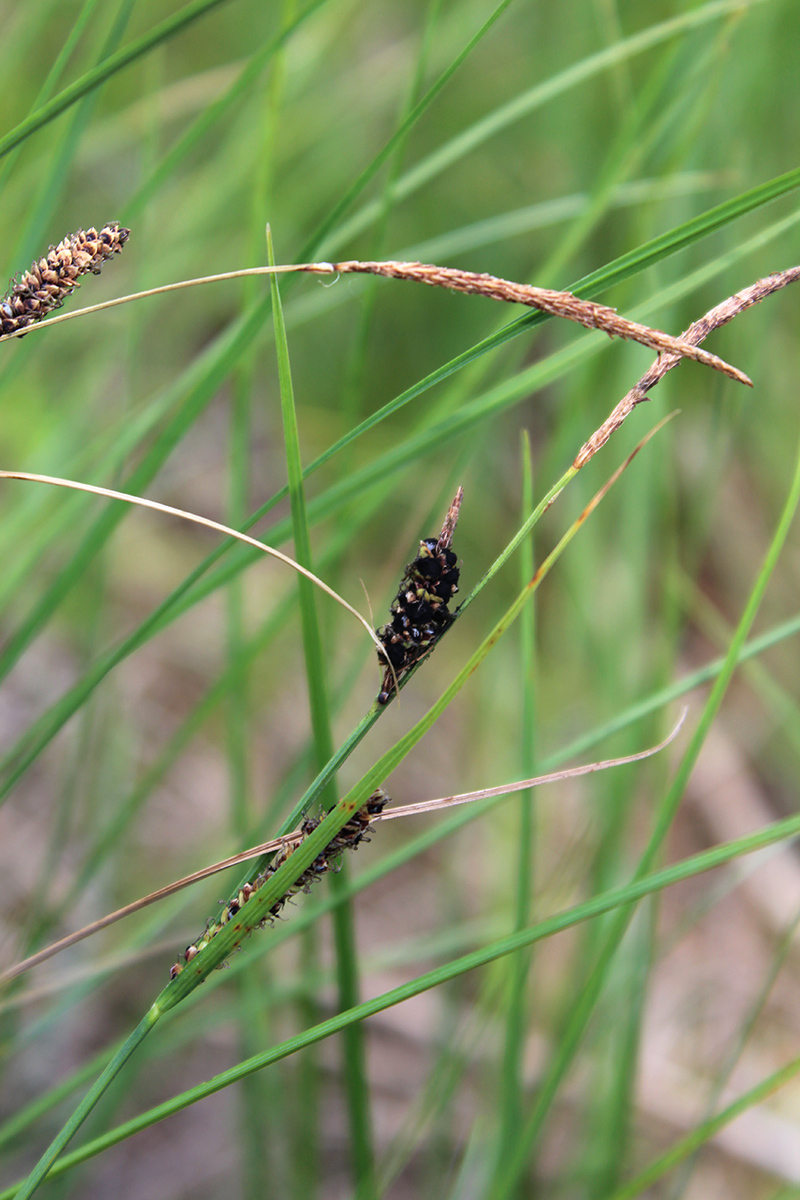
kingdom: Fungi
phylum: Basidiomycota
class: Ustilaginomycetes
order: Ustilaginales
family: Anthracoideaceae
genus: Anthracoidea
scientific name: Anthracoidea heterospora
